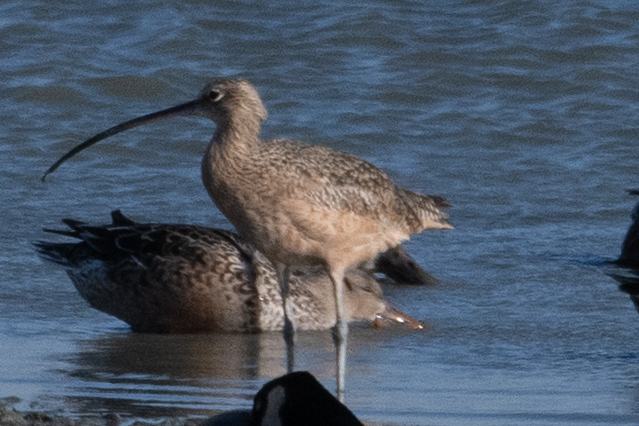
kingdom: Animalia
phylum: Chordata
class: Aves
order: Charadriiformes
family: Scolopacidae
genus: Numenius
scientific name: Numenius americanus
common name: Long-billed curlew
